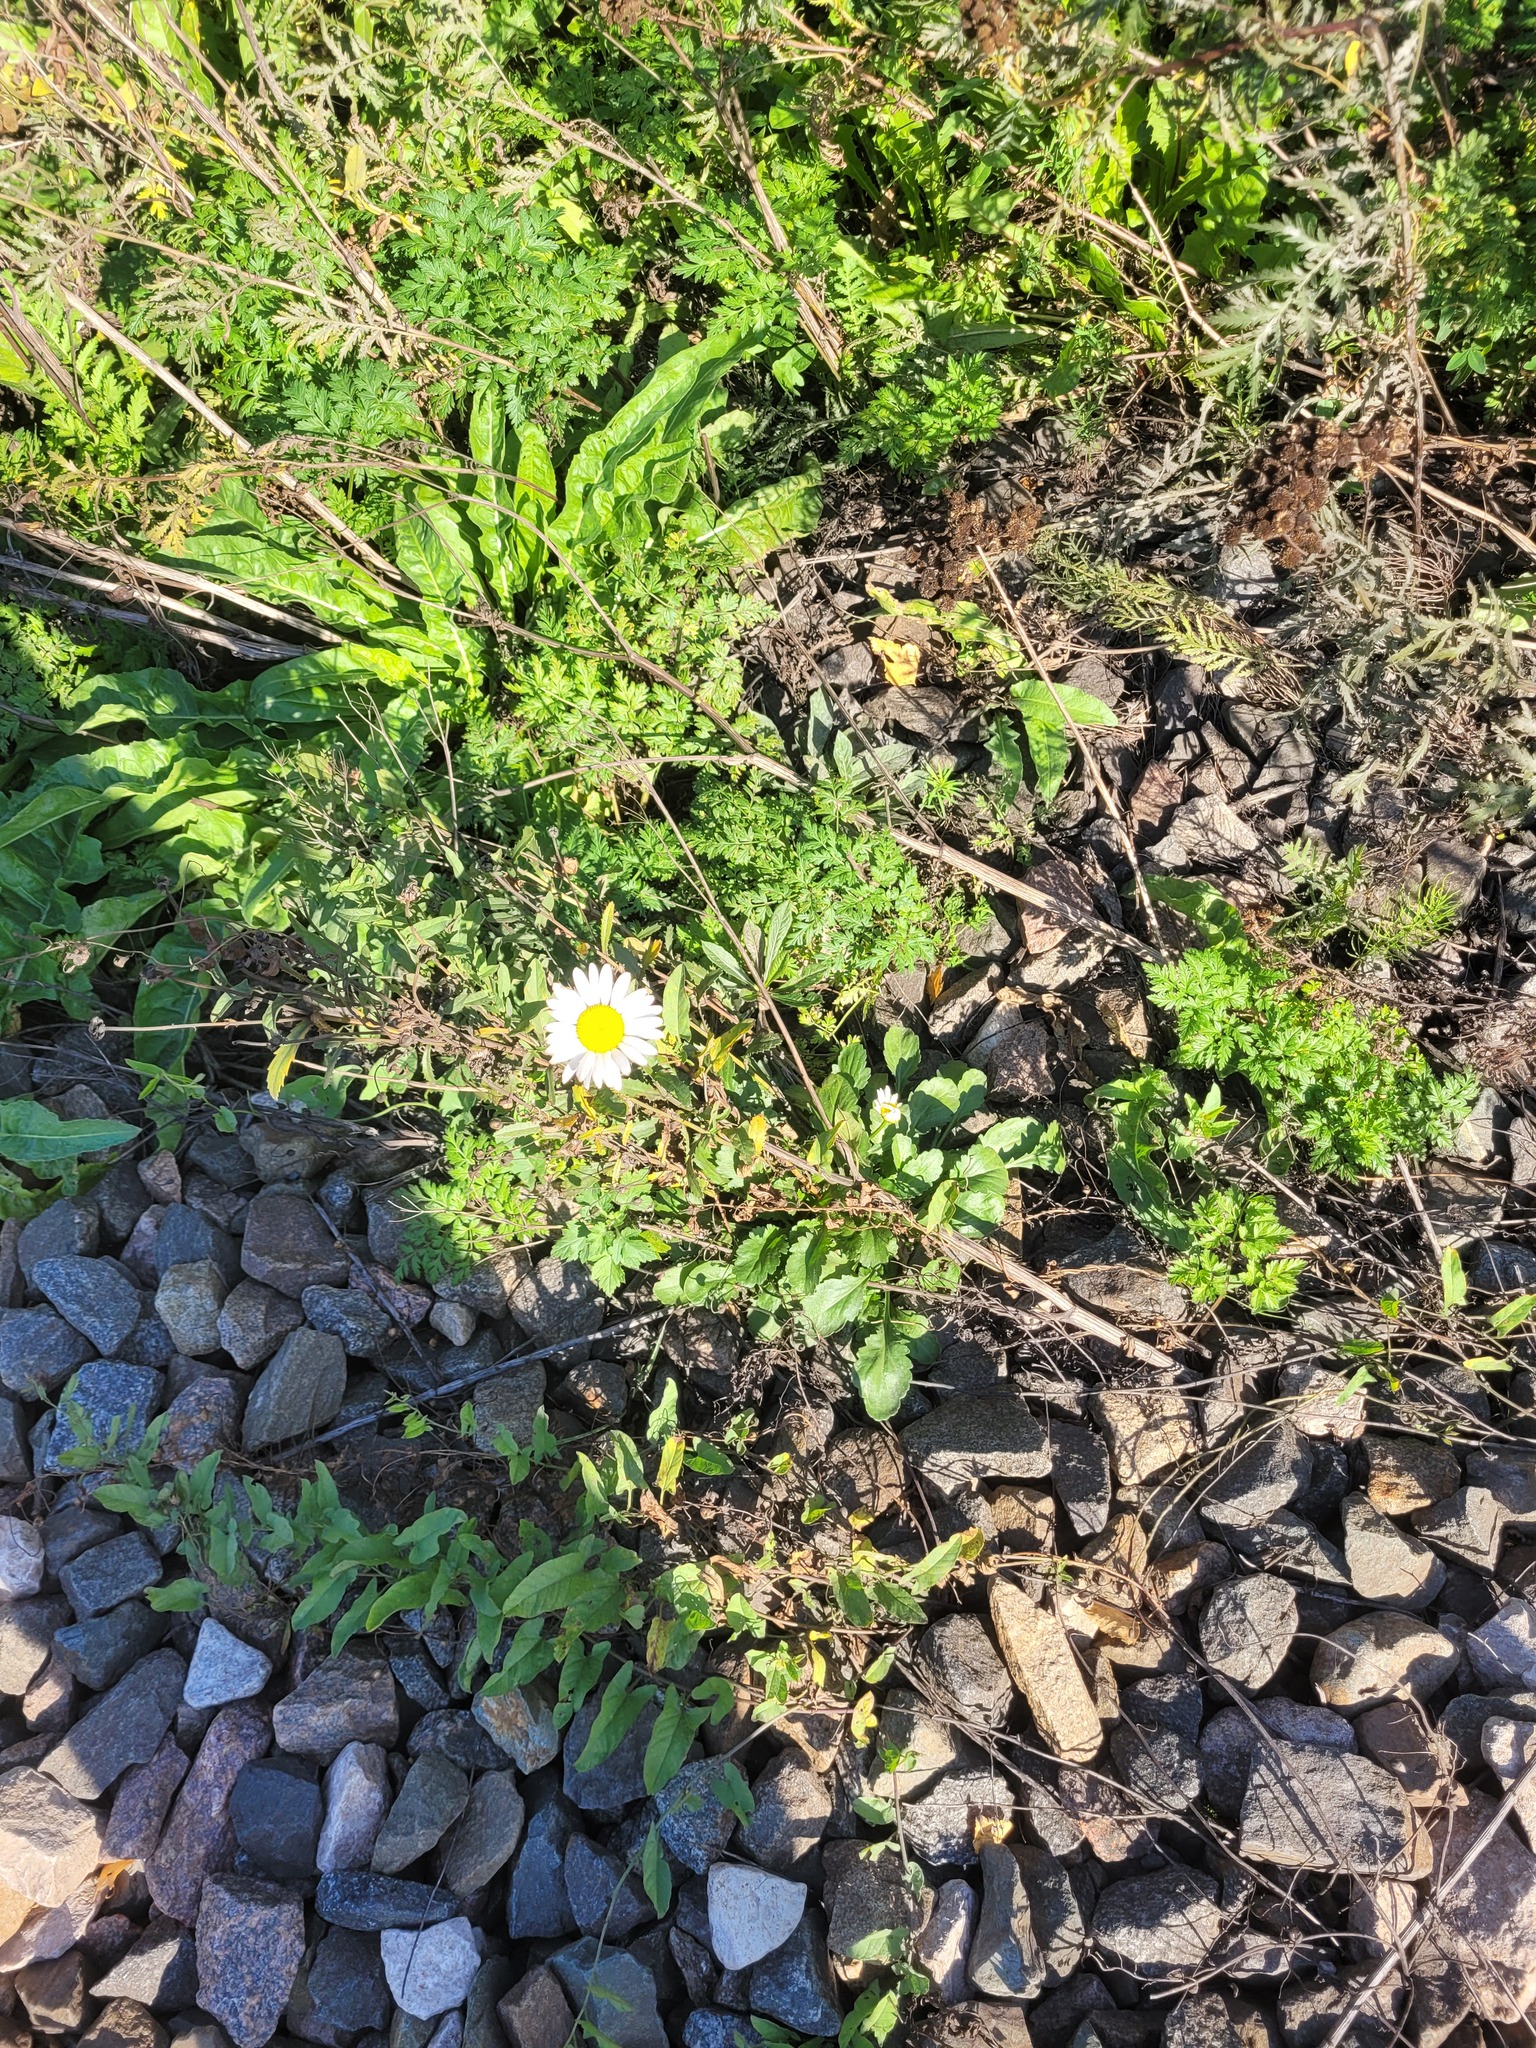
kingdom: Plantae
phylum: Tracheophyta
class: Magnoliopsida
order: Asterales
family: Asteraceae
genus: Leucanthemum
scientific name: Leucanthemum vulgare
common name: Oxeye daisy
